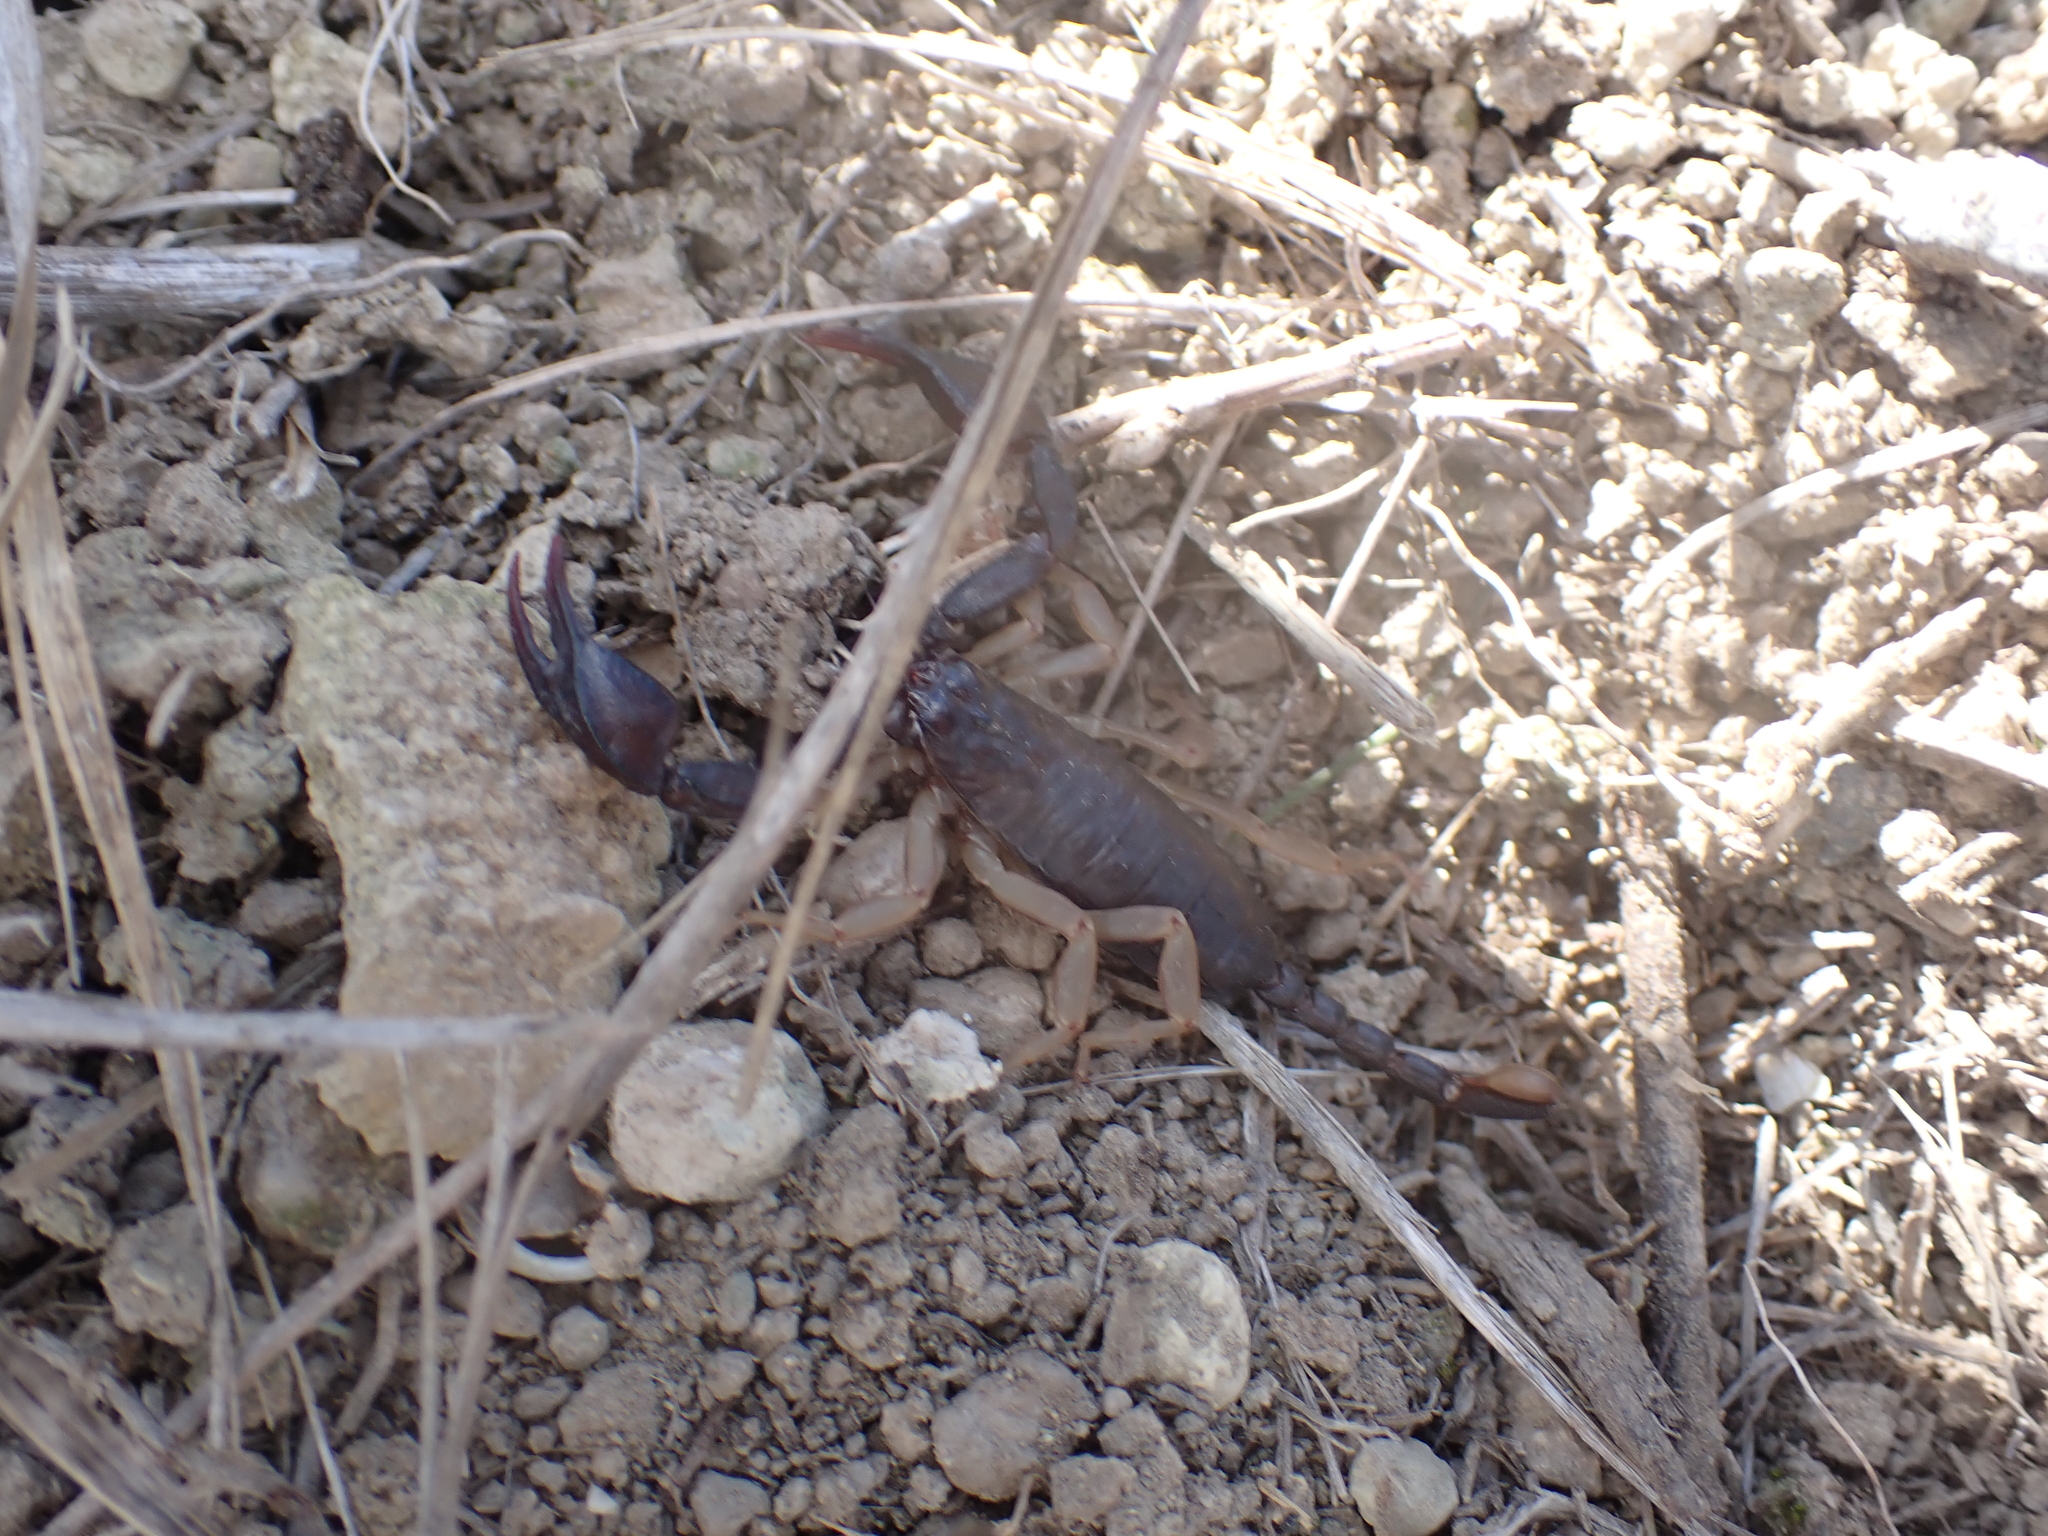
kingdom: Animalia
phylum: Arthropoda
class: Arachnida
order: Scorpiones
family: Euscorpiidae
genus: Euscorpius
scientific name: Euscorpius flavicaudis
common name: European yellow-tailed scorpion
